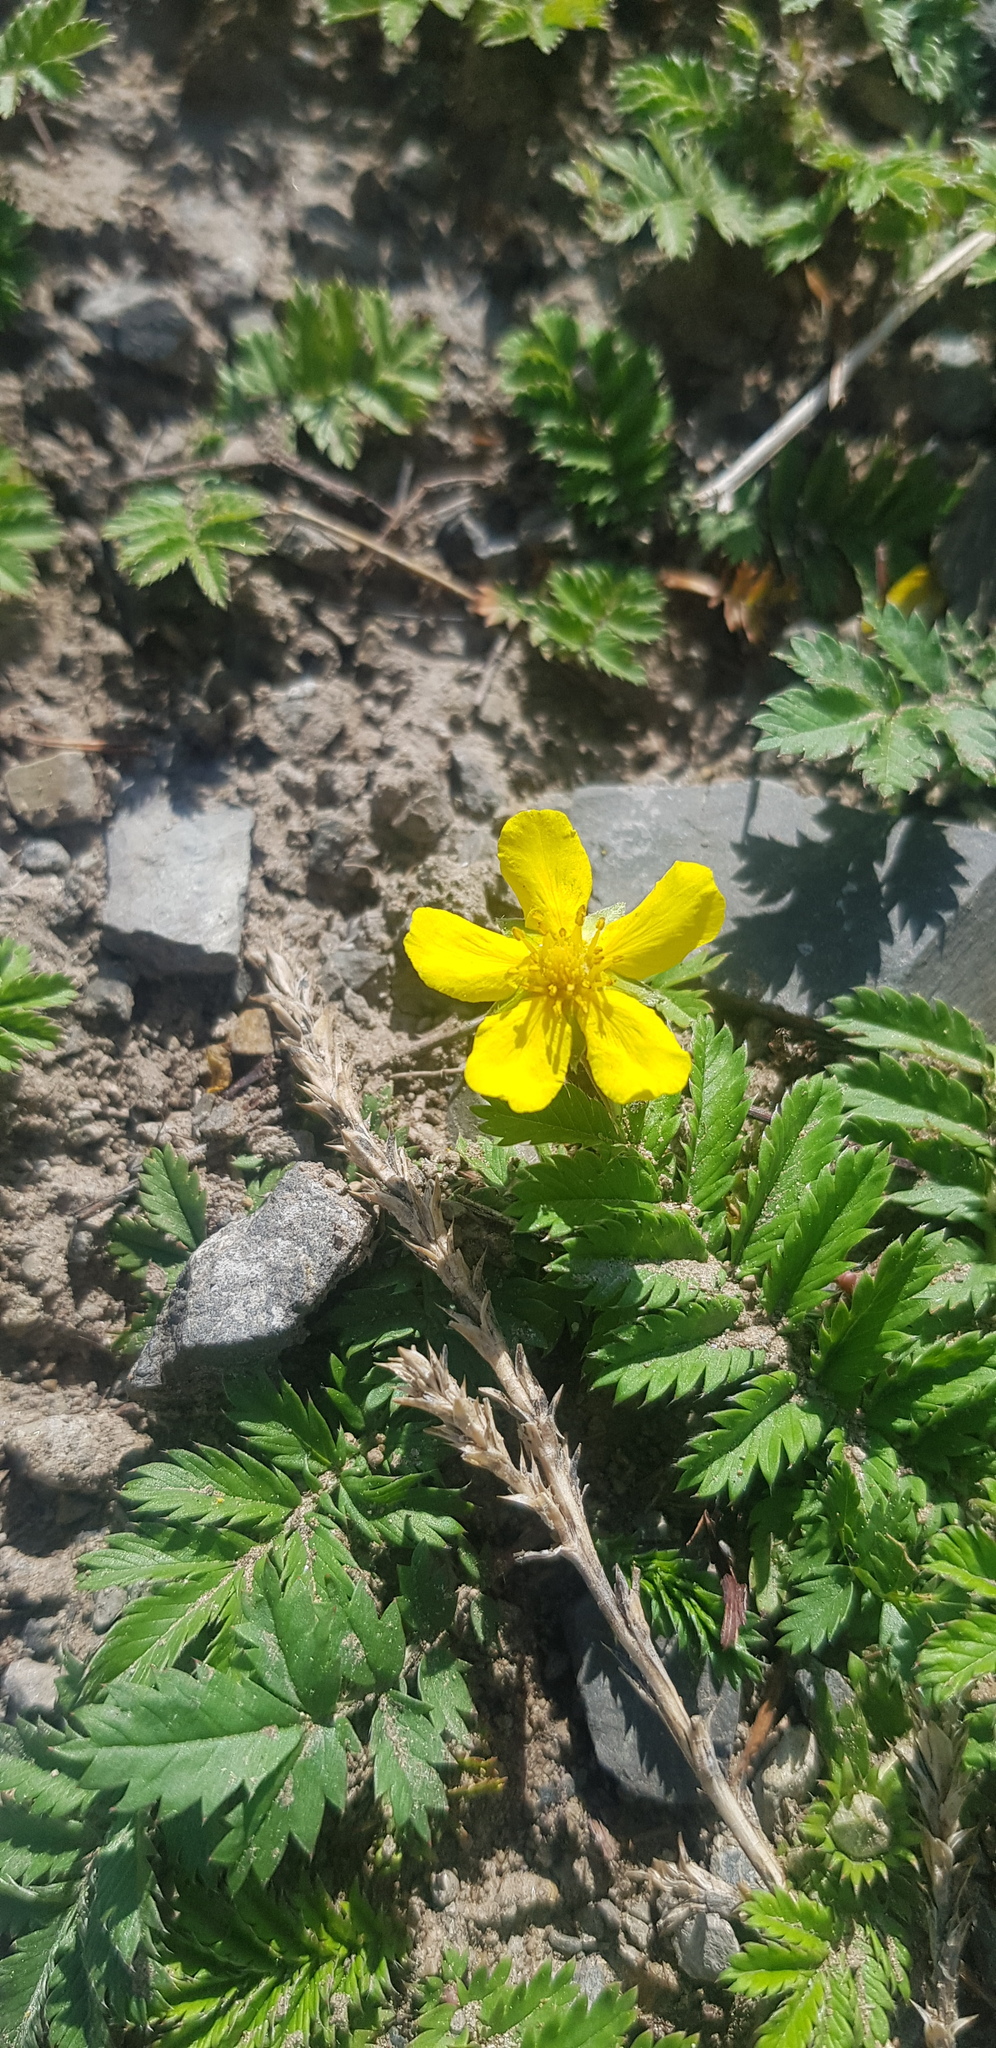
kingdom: Plantae
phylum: Tracheophyta
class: Magnoliopsida
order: Rosales
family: Rosaceae
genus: Argentina
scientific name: Argentina anserina
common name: Common silverweed
